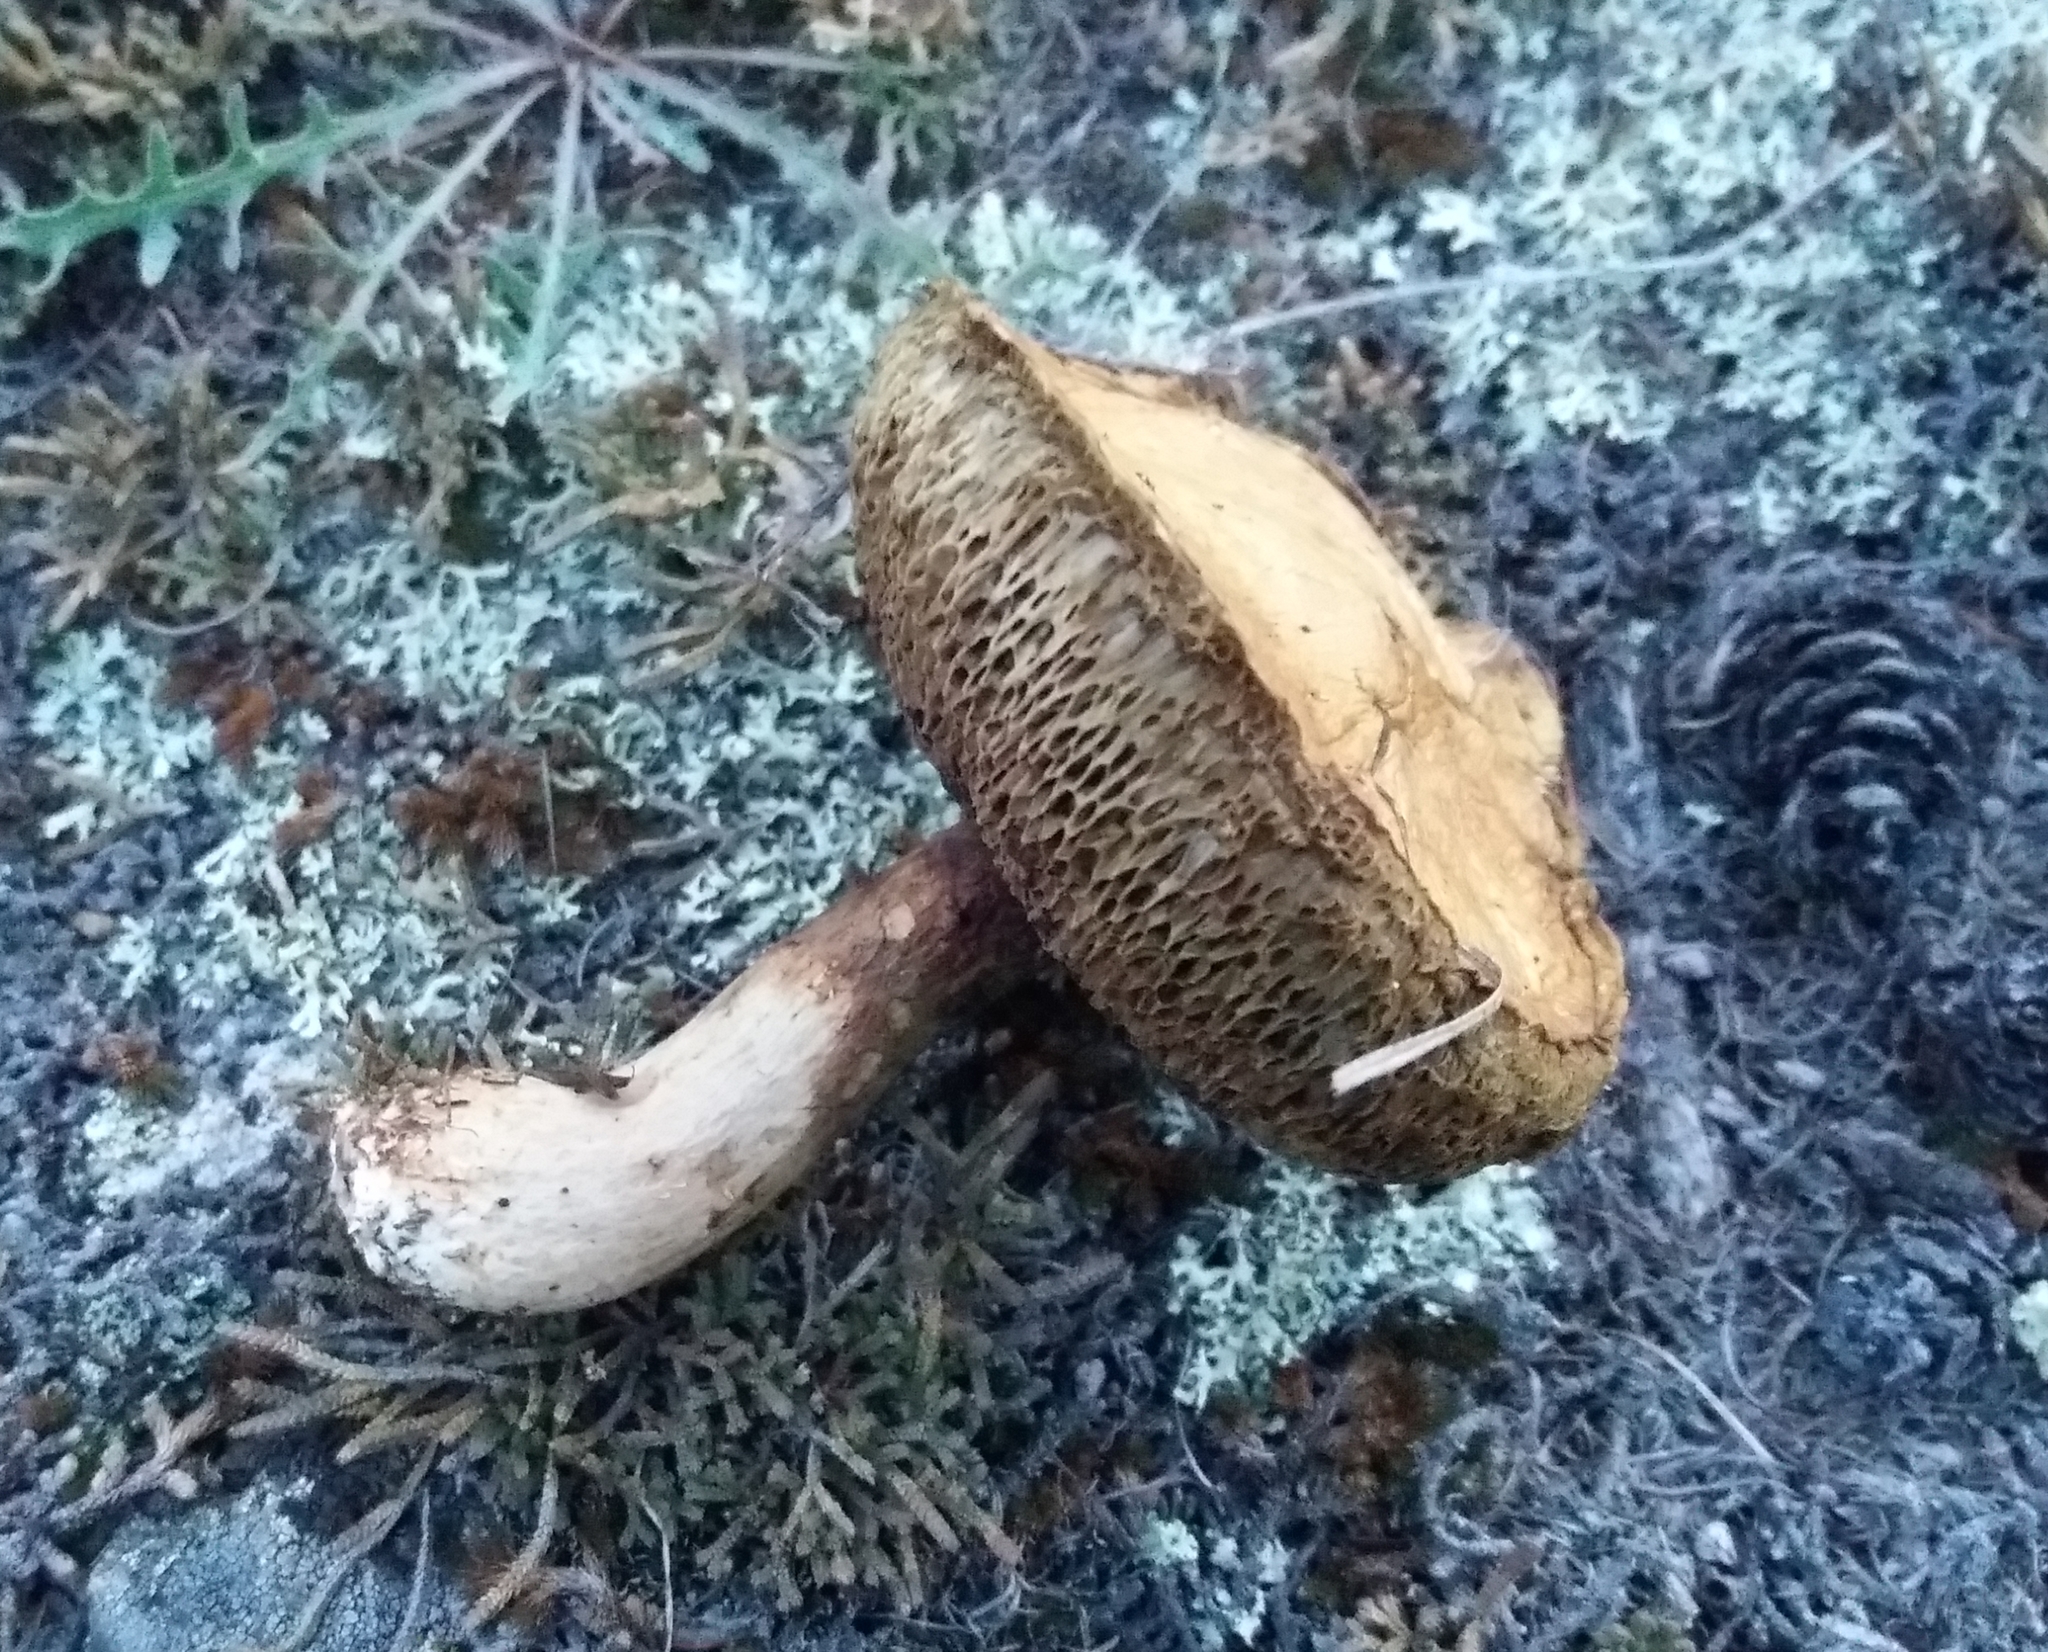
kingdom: Fungi
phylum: Basidiomycota
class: Agaricomycetes
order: Boletales
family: Suillaceae
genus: Suillus
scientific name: Suillus viscidus
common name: Sticky bolete
